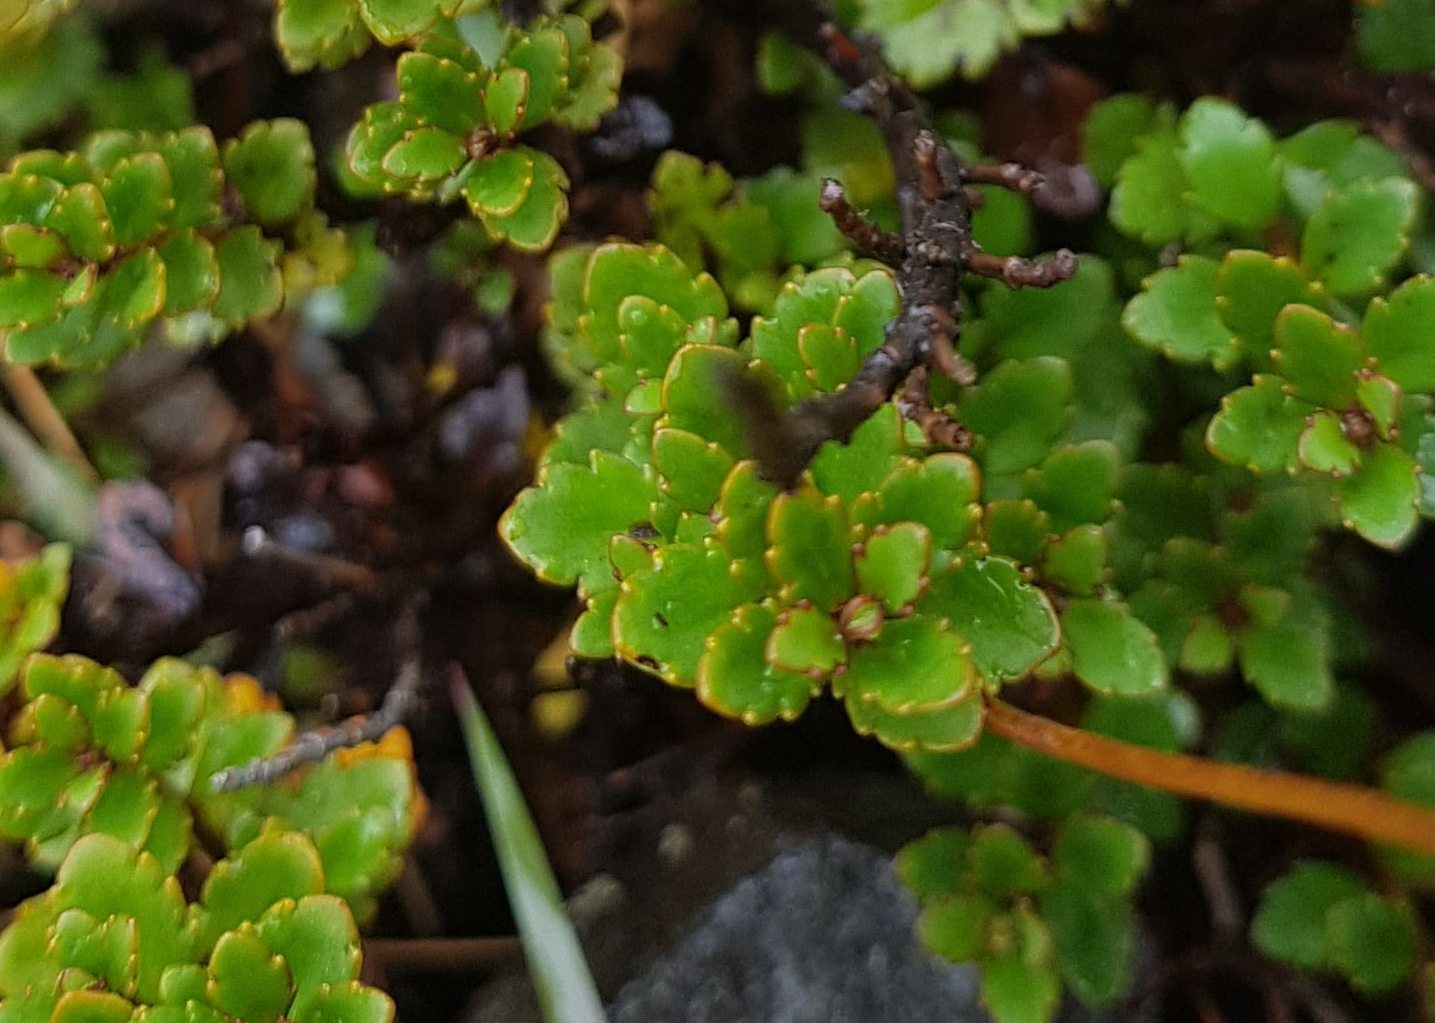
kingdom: Plantae
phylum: Tracheophyta
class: Magnoliopsida
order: Lamiales
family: Plantaginaceae
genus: Veronica
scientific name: Veronica lyallii
